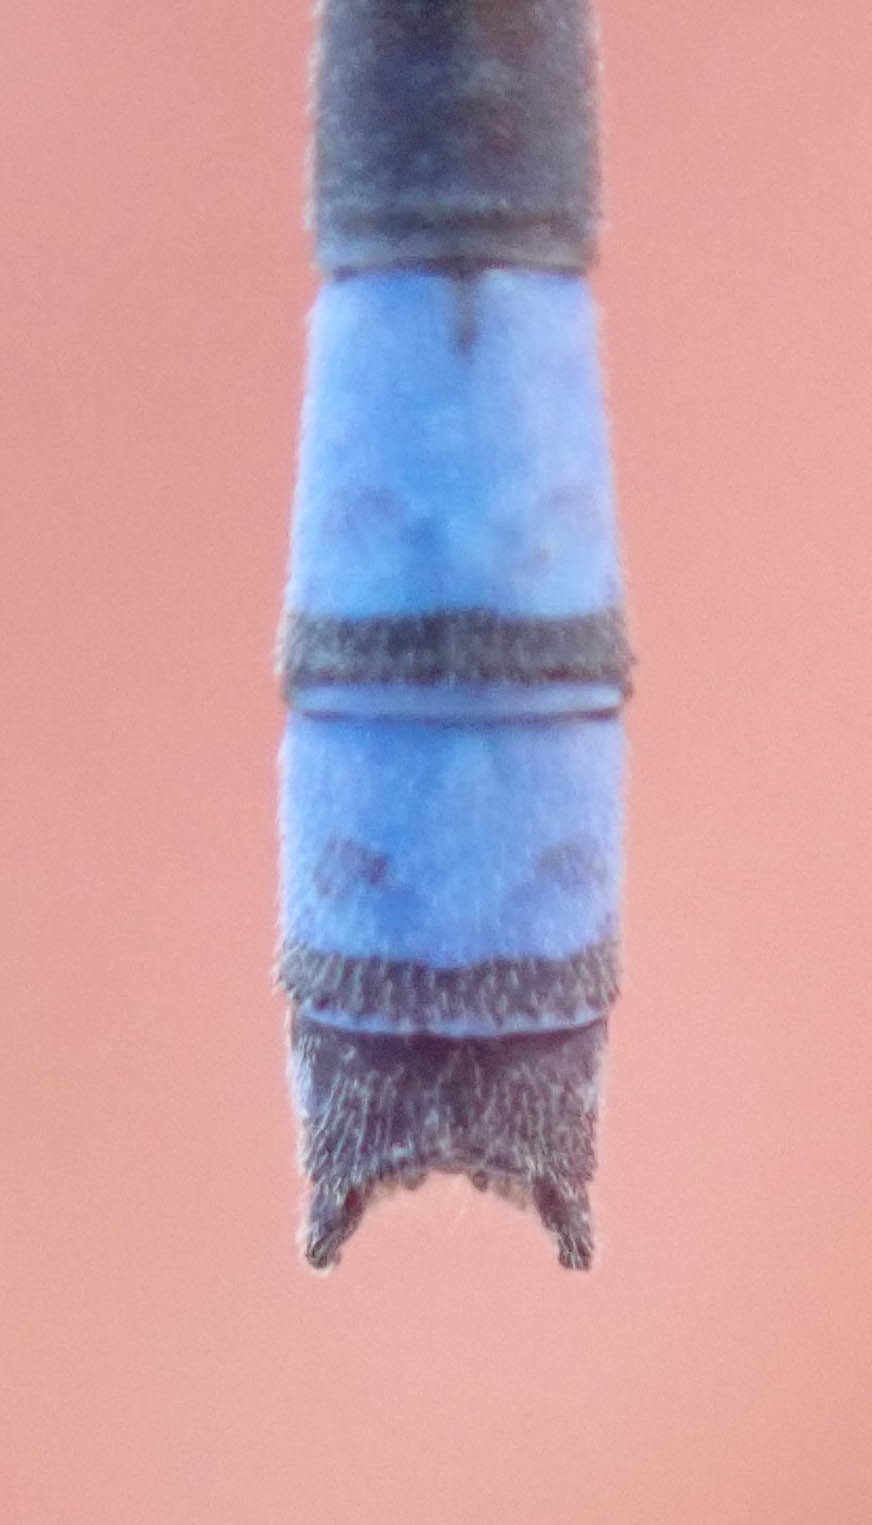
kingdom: Animalia
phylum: Arthropoda
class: Insecta
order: Odonata
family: Coenagrionidae
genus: Pseudagrion
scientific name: Pseudagrion massaicum
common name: Masai sprite
